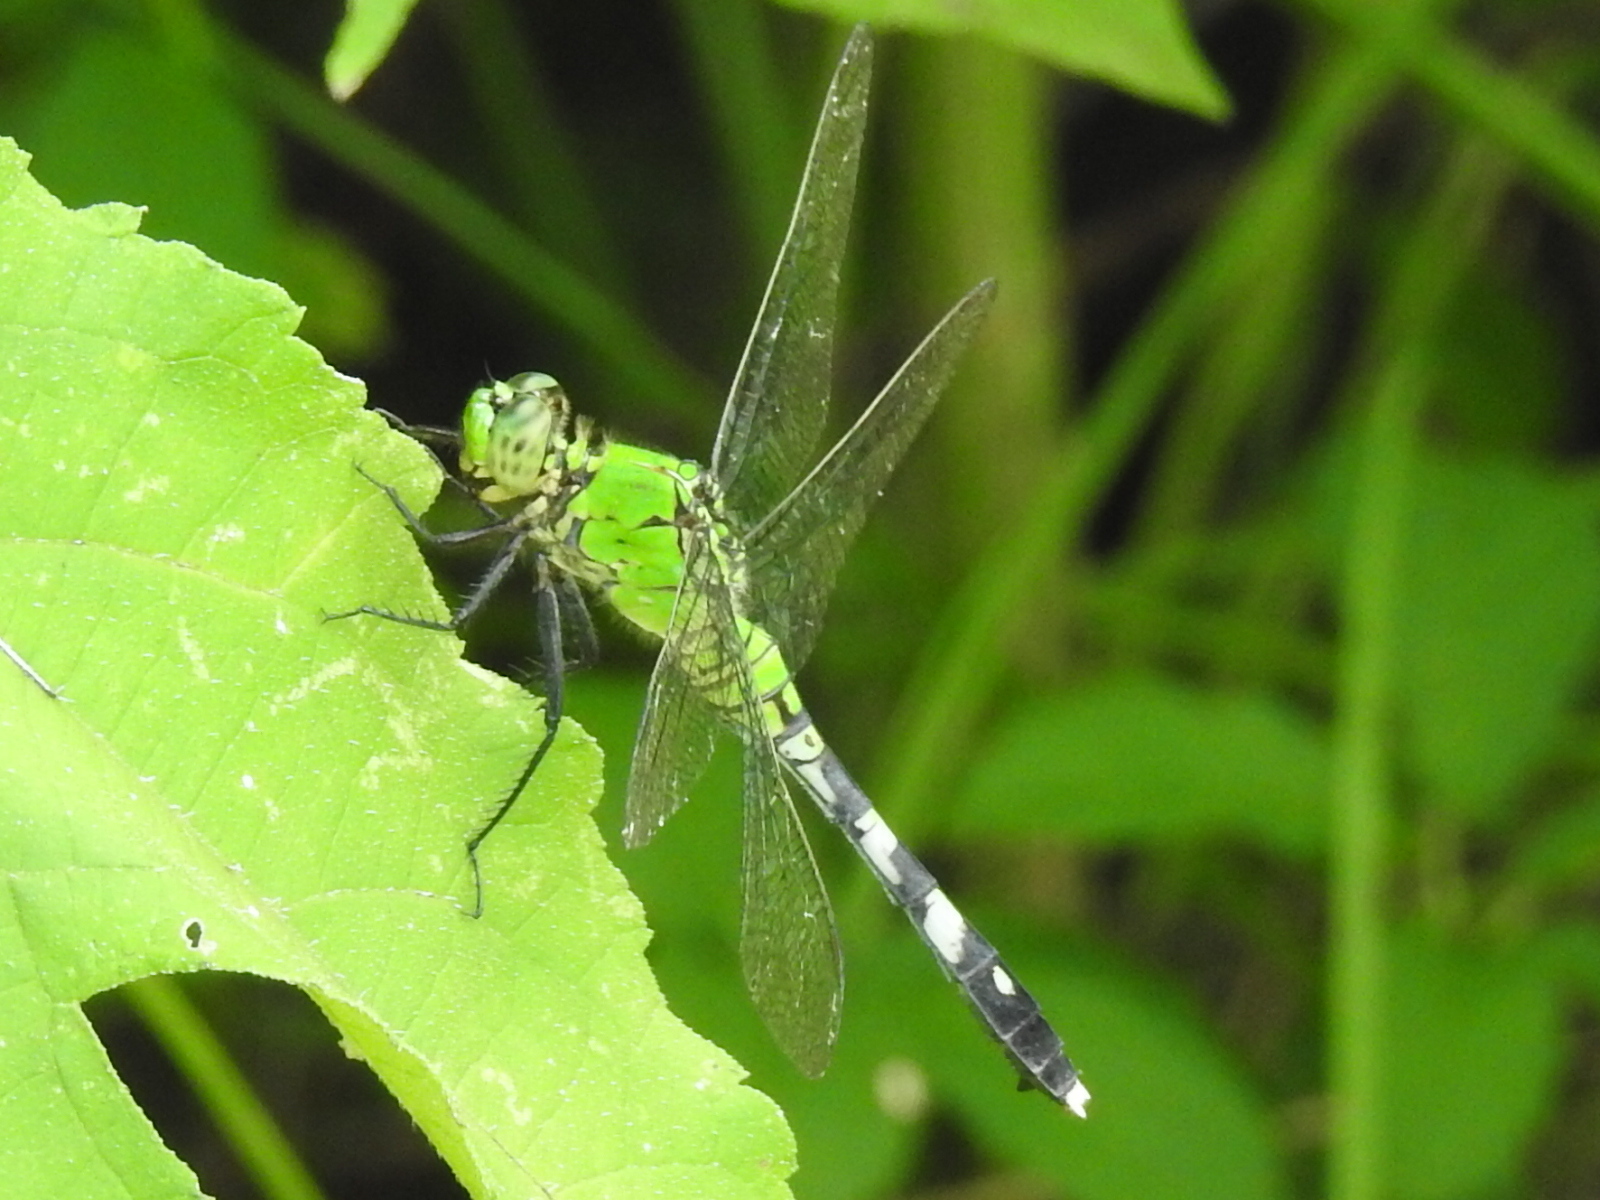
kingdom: Animalia
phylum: Arthropoda
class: Insecta
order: Odonata
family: Libellulidae
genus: Erythemis
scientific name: Erythemis simplicicollis
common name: Eastern pondhawk
